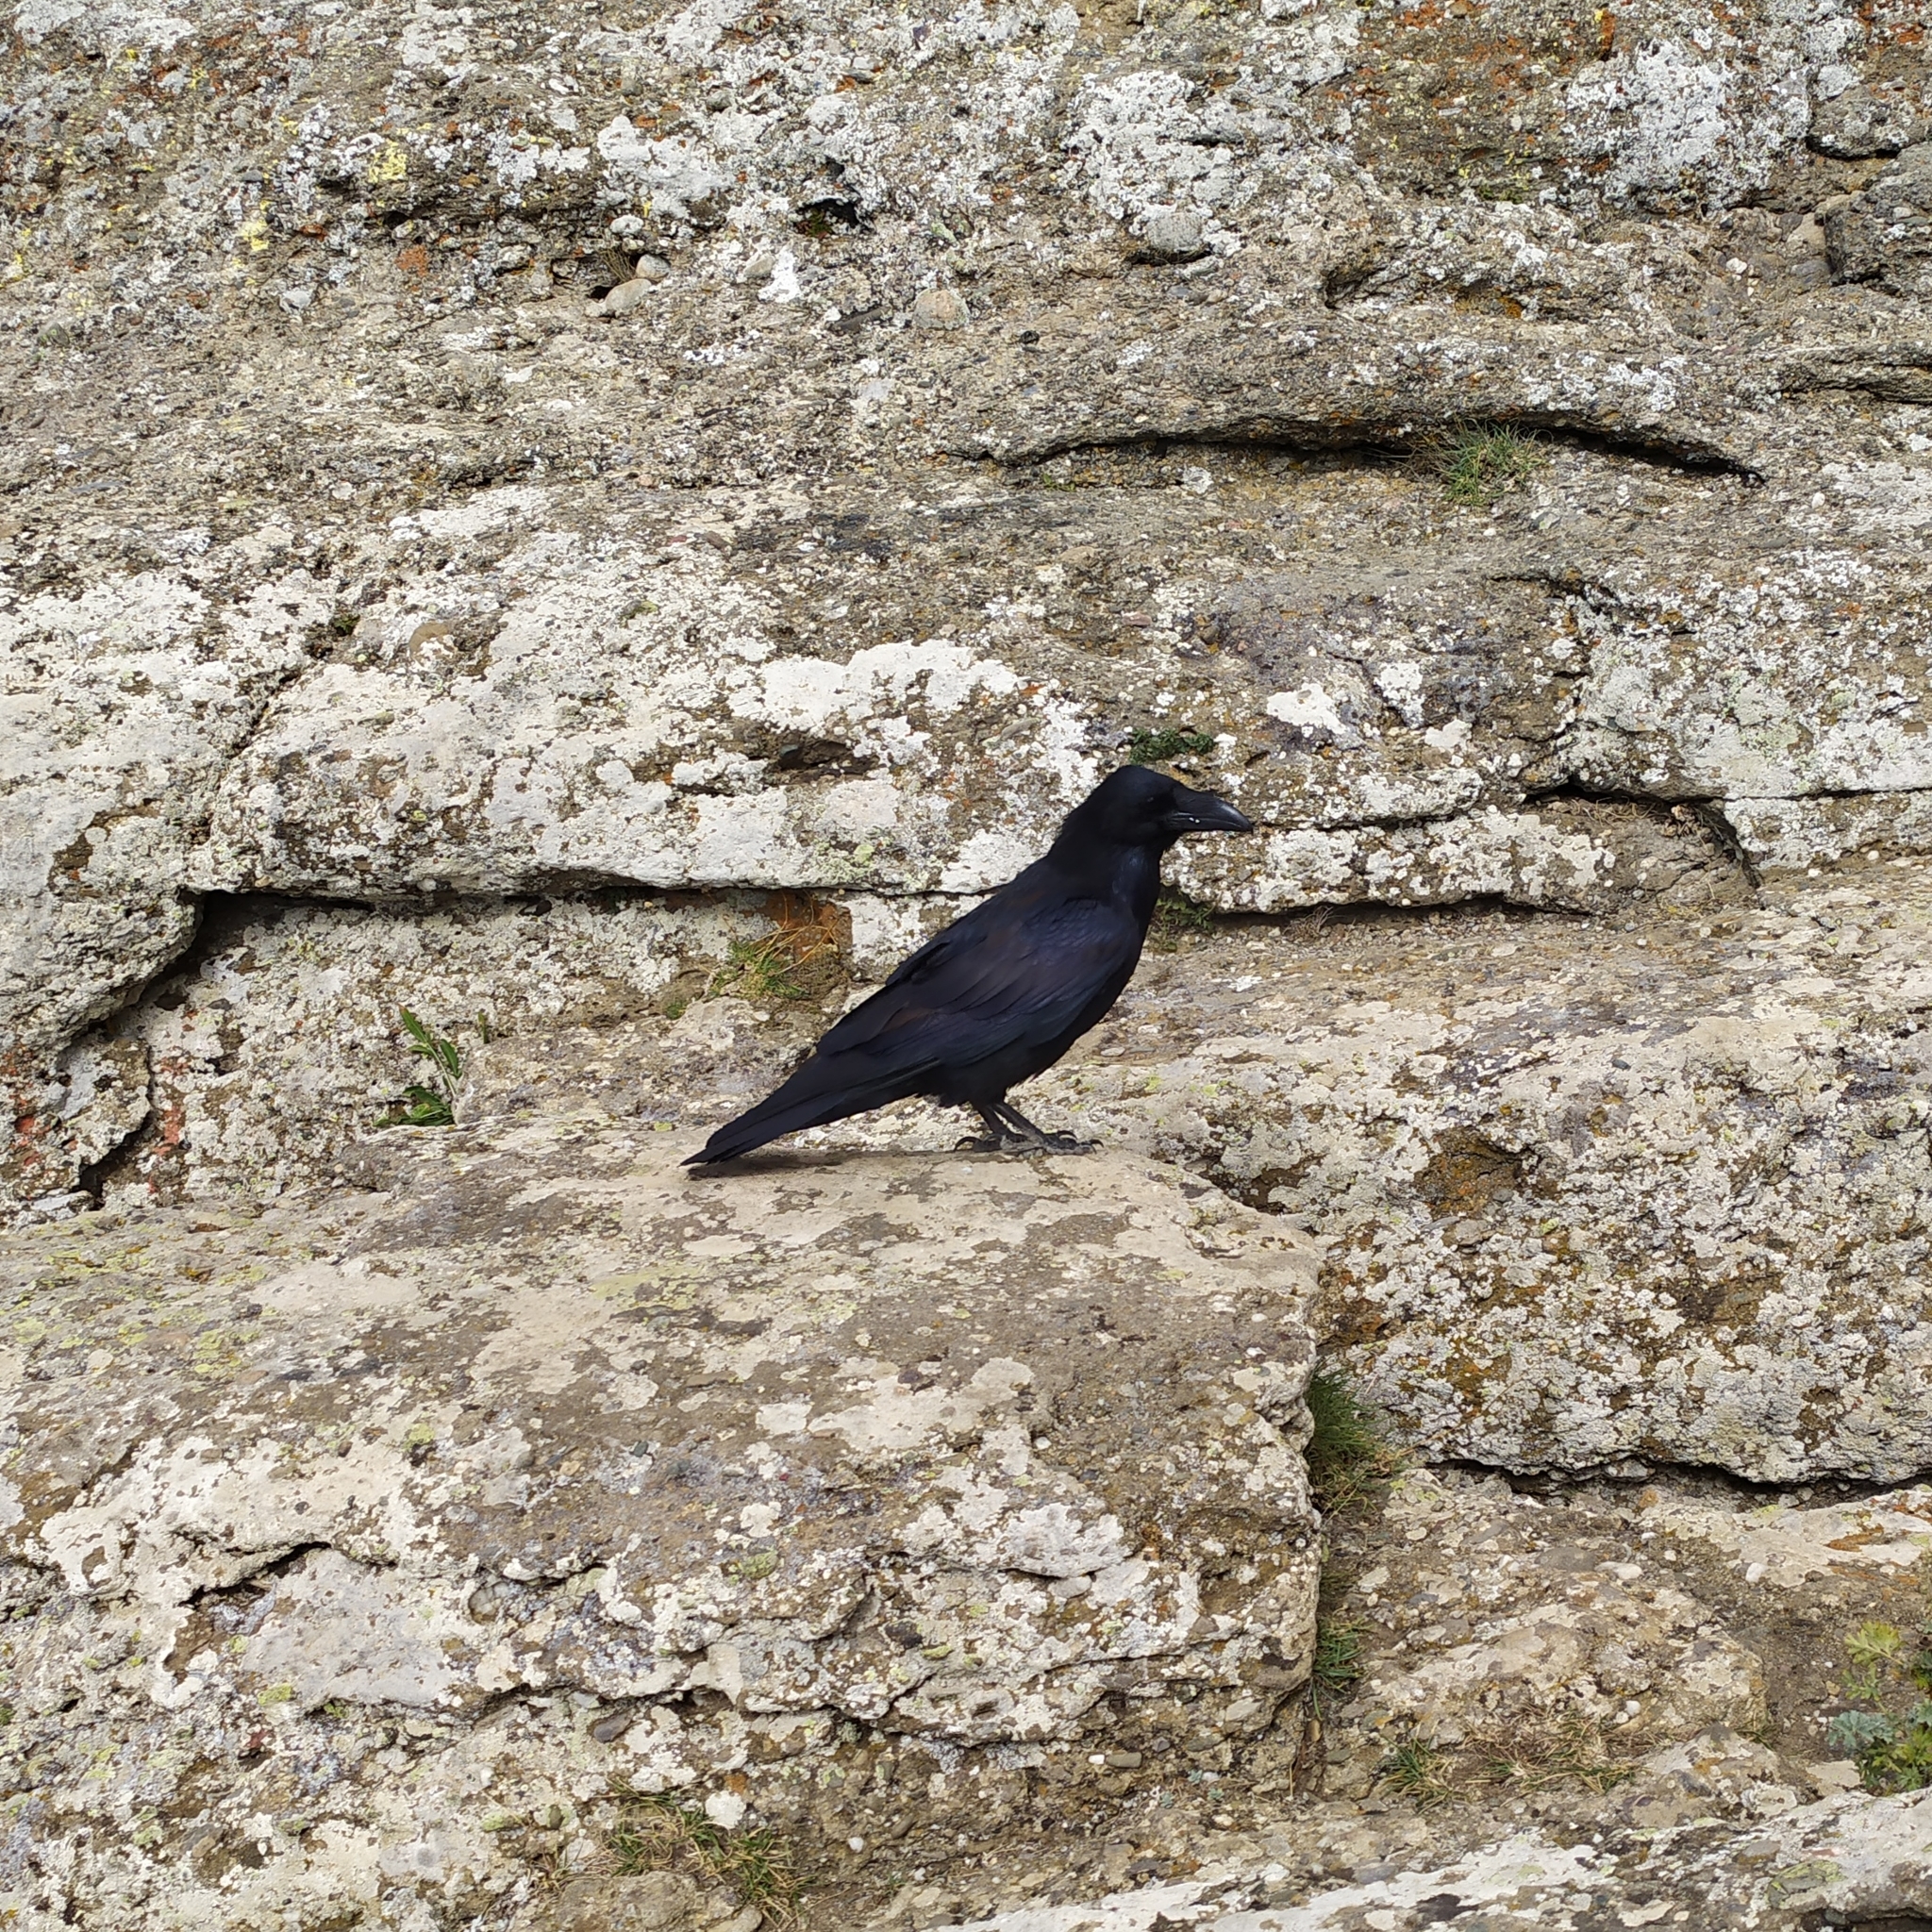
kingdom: Animalia
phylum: Chordata
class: Aves
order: Passeriformes
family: Corvidae
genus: Corvus
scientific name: Corvus corax
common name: Common raven
